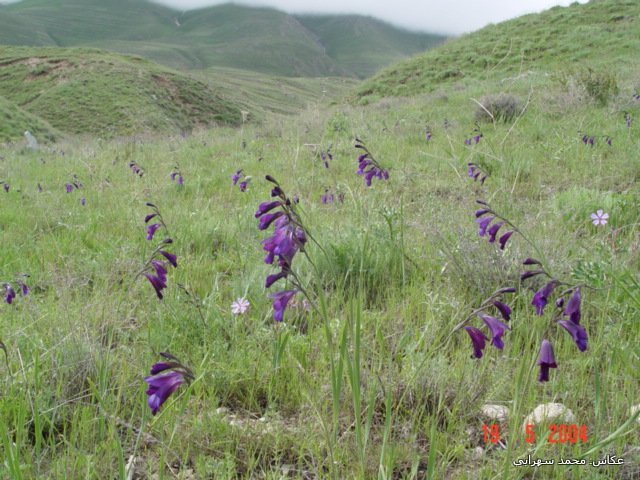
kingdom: Plantae
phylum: Tracheophyta
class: Liliopsida
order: Asparagales
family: Iridaceae
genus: Gladiolus
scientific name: Gladiolus atroviolaceus
